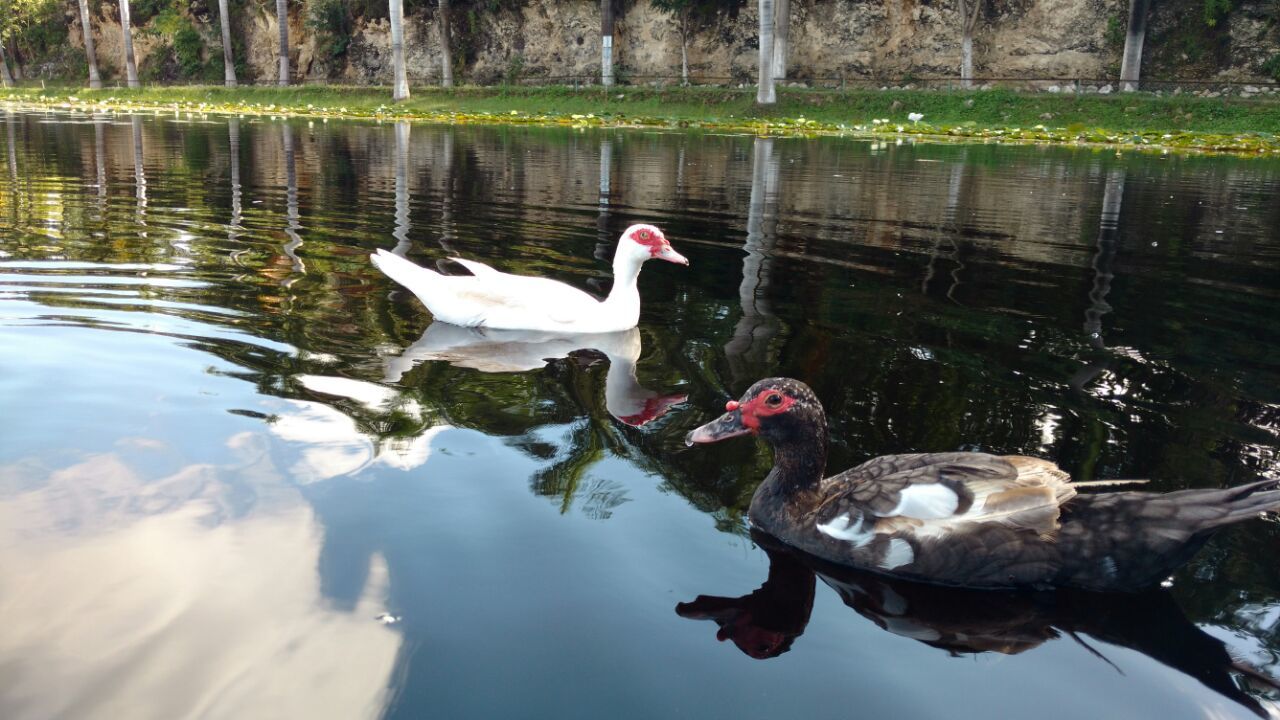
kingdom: Animalia
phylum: Chordata
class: Aves
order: Anseriformes
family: Anatidae
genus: Cairina
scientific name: Cairina moschata
